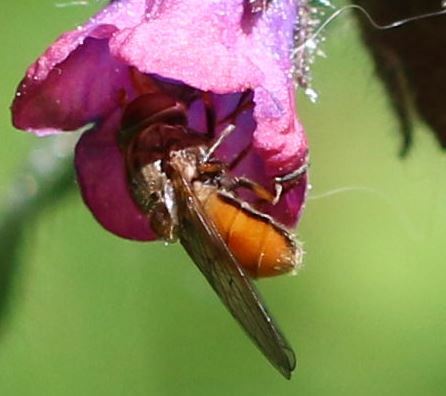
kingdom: Animalia
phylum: Arthropoda
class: Insecta
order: Diptera
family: Syrphidae
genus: Rhingia
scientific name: Rhingia campestris
